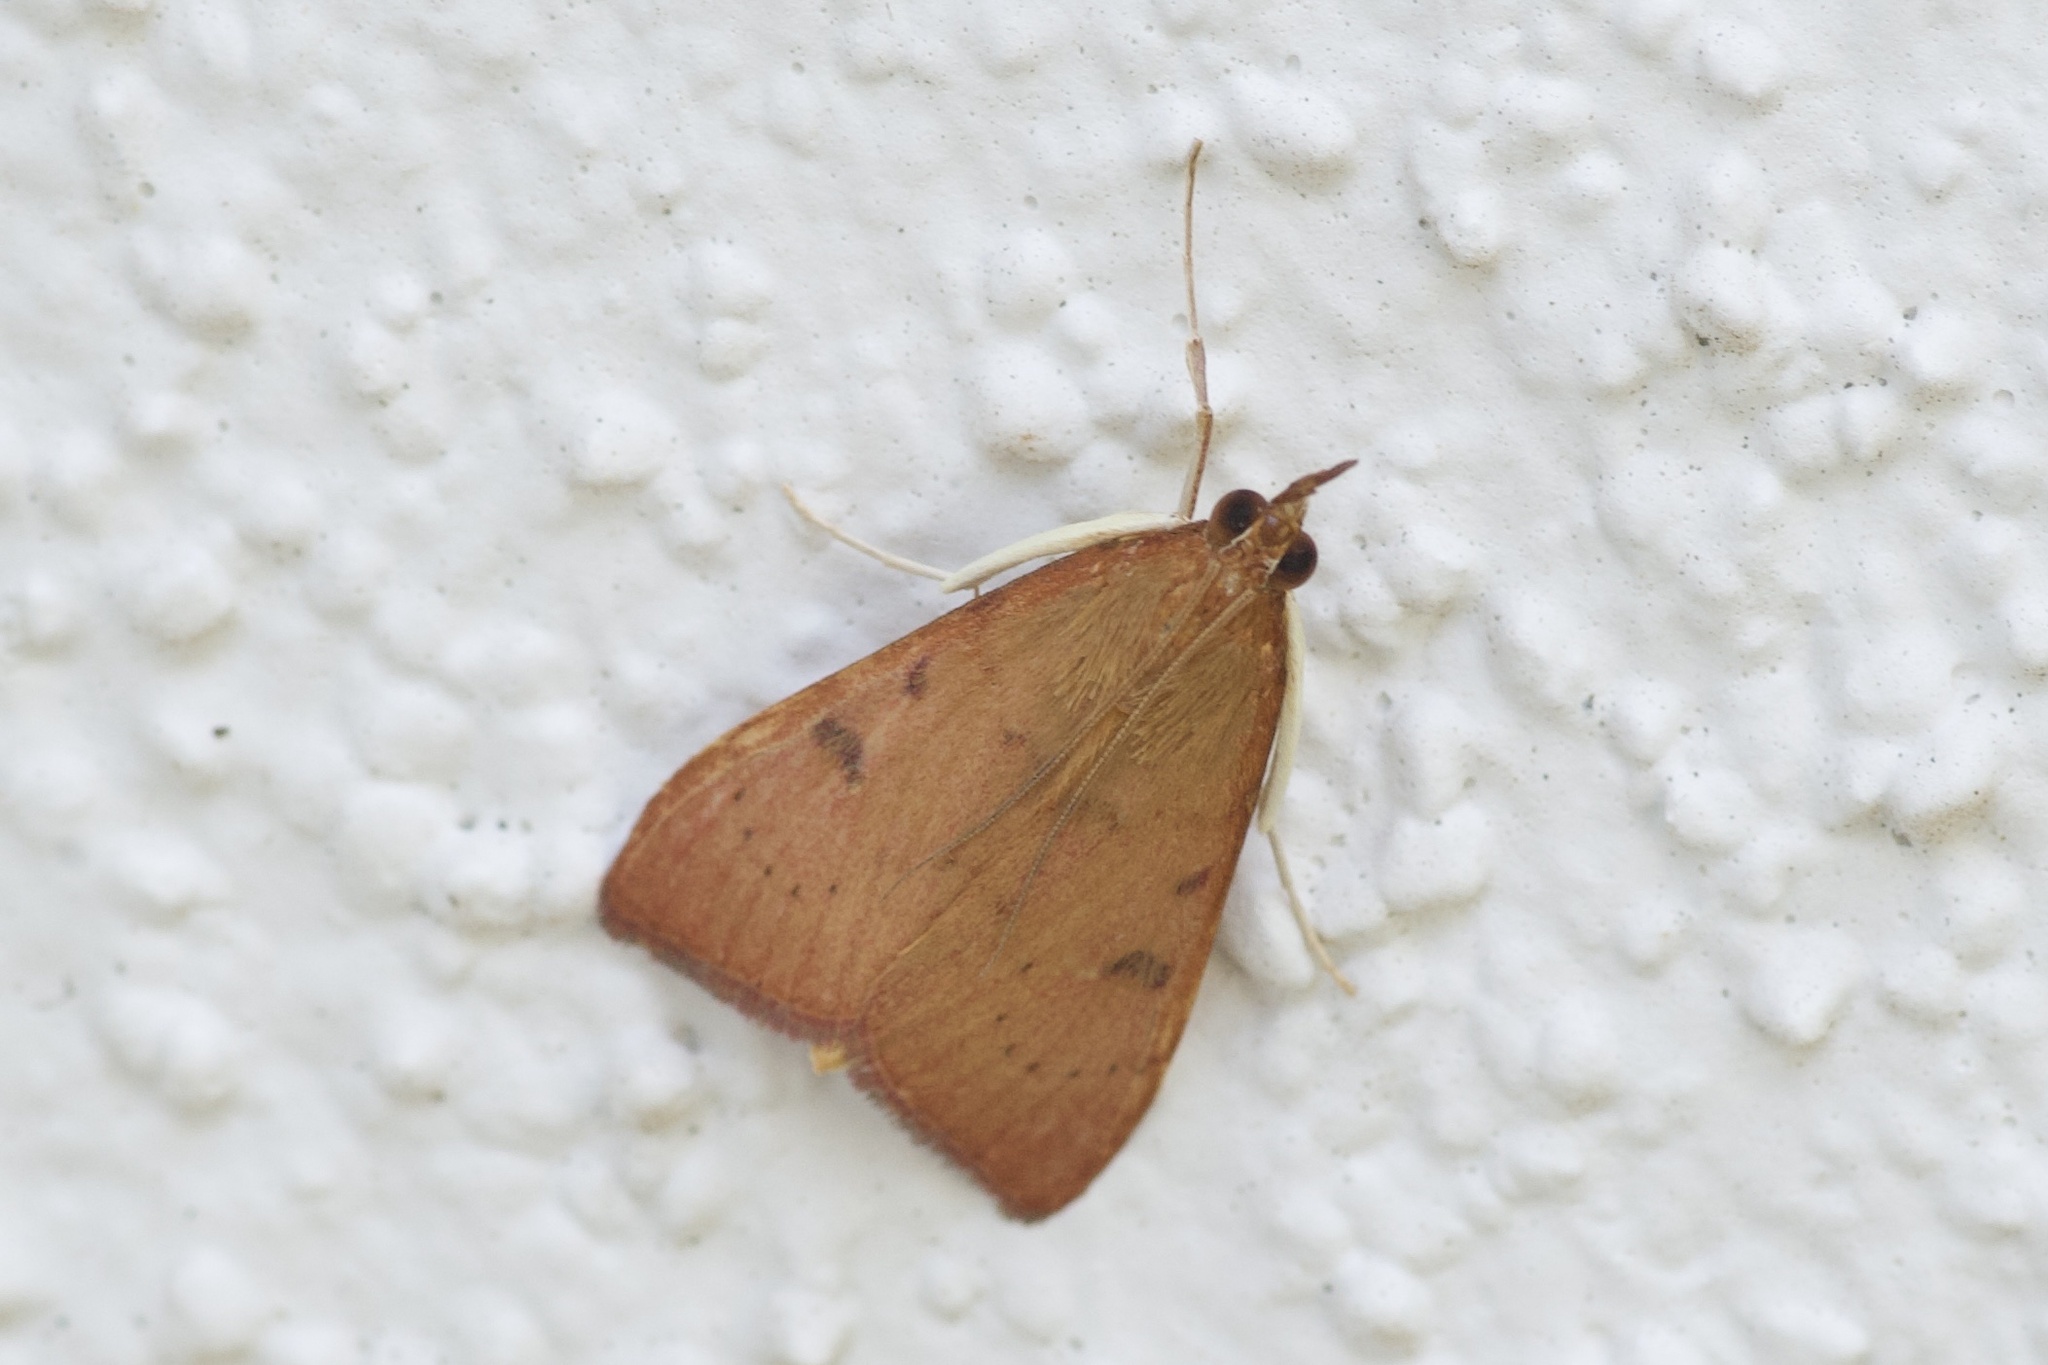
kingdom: Animalia
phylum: Arthropoda
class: Insecta
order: Lepidoptera
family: Crambidae
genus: Uresiphita
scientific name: Uresiphita reversalis
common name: Genista broom moth
